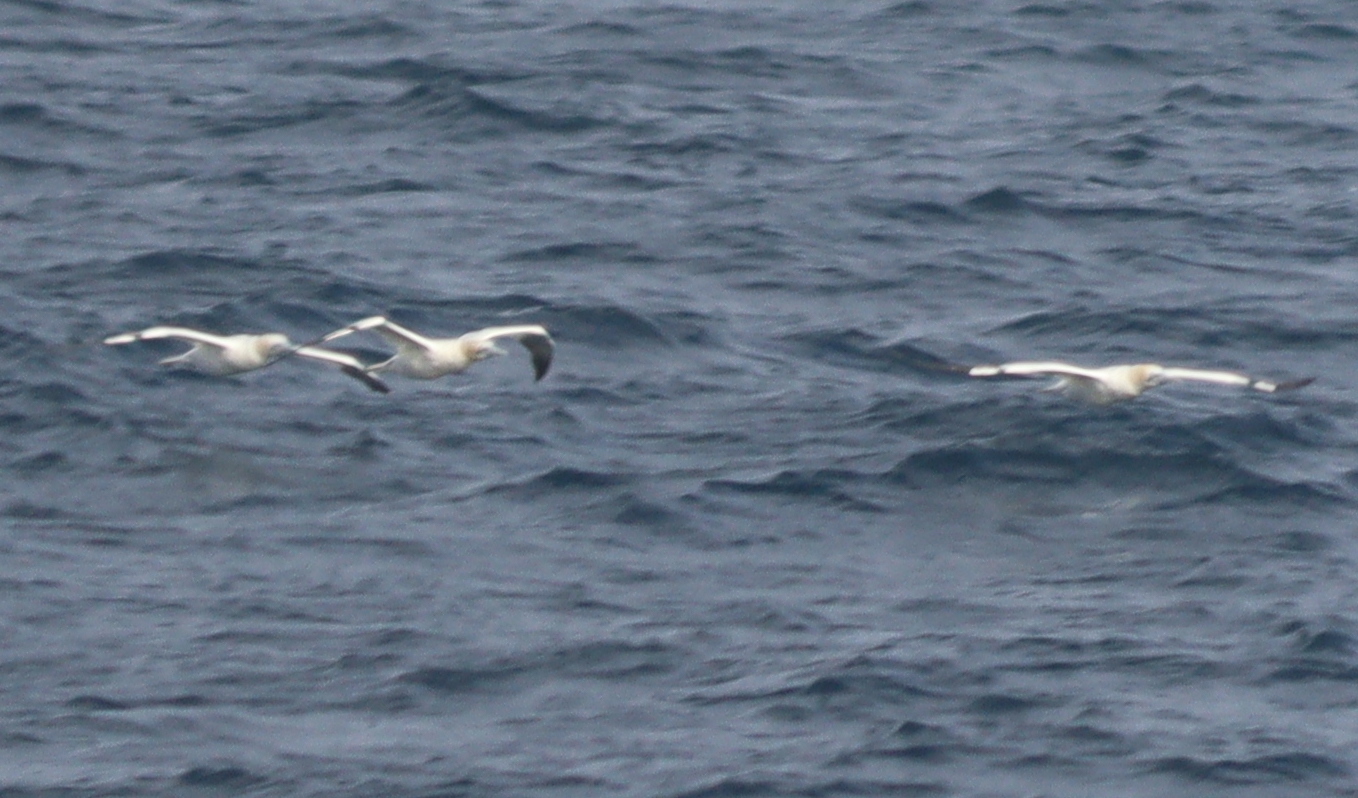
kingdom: Animalia
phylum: Chordata
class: Aves
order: Suliformes
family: Sulidae
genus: Morus
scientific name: Morus bassanus
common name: Northern gannet
